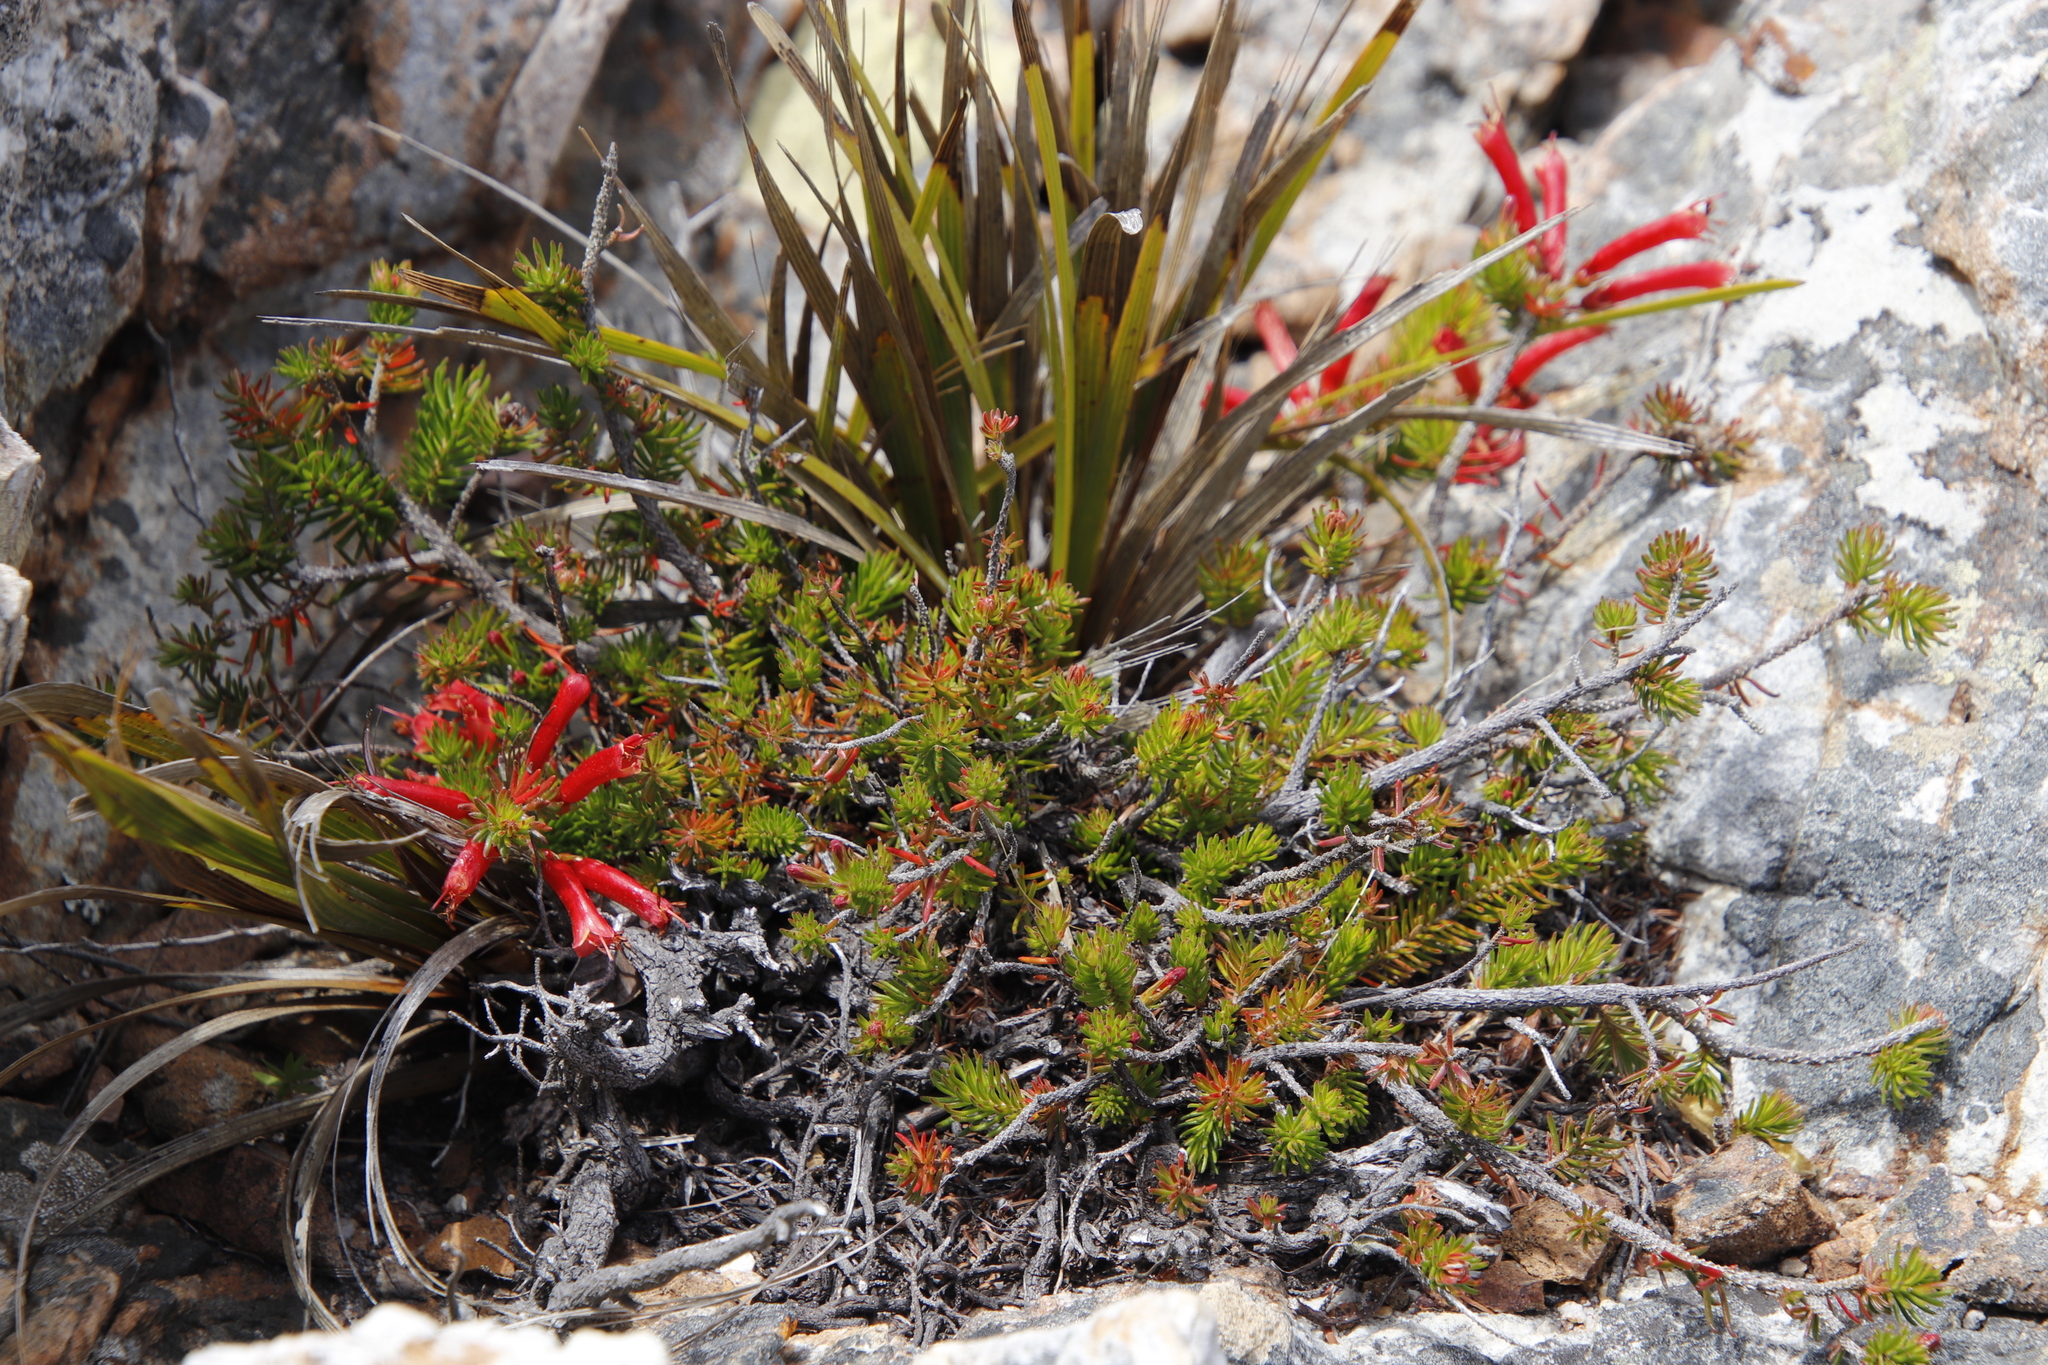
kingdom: Plantae
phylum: Tracheophyta
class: Magnoliopsida
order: Ericales
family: Ericaceae
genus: Erica
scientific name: Erica nevillei
